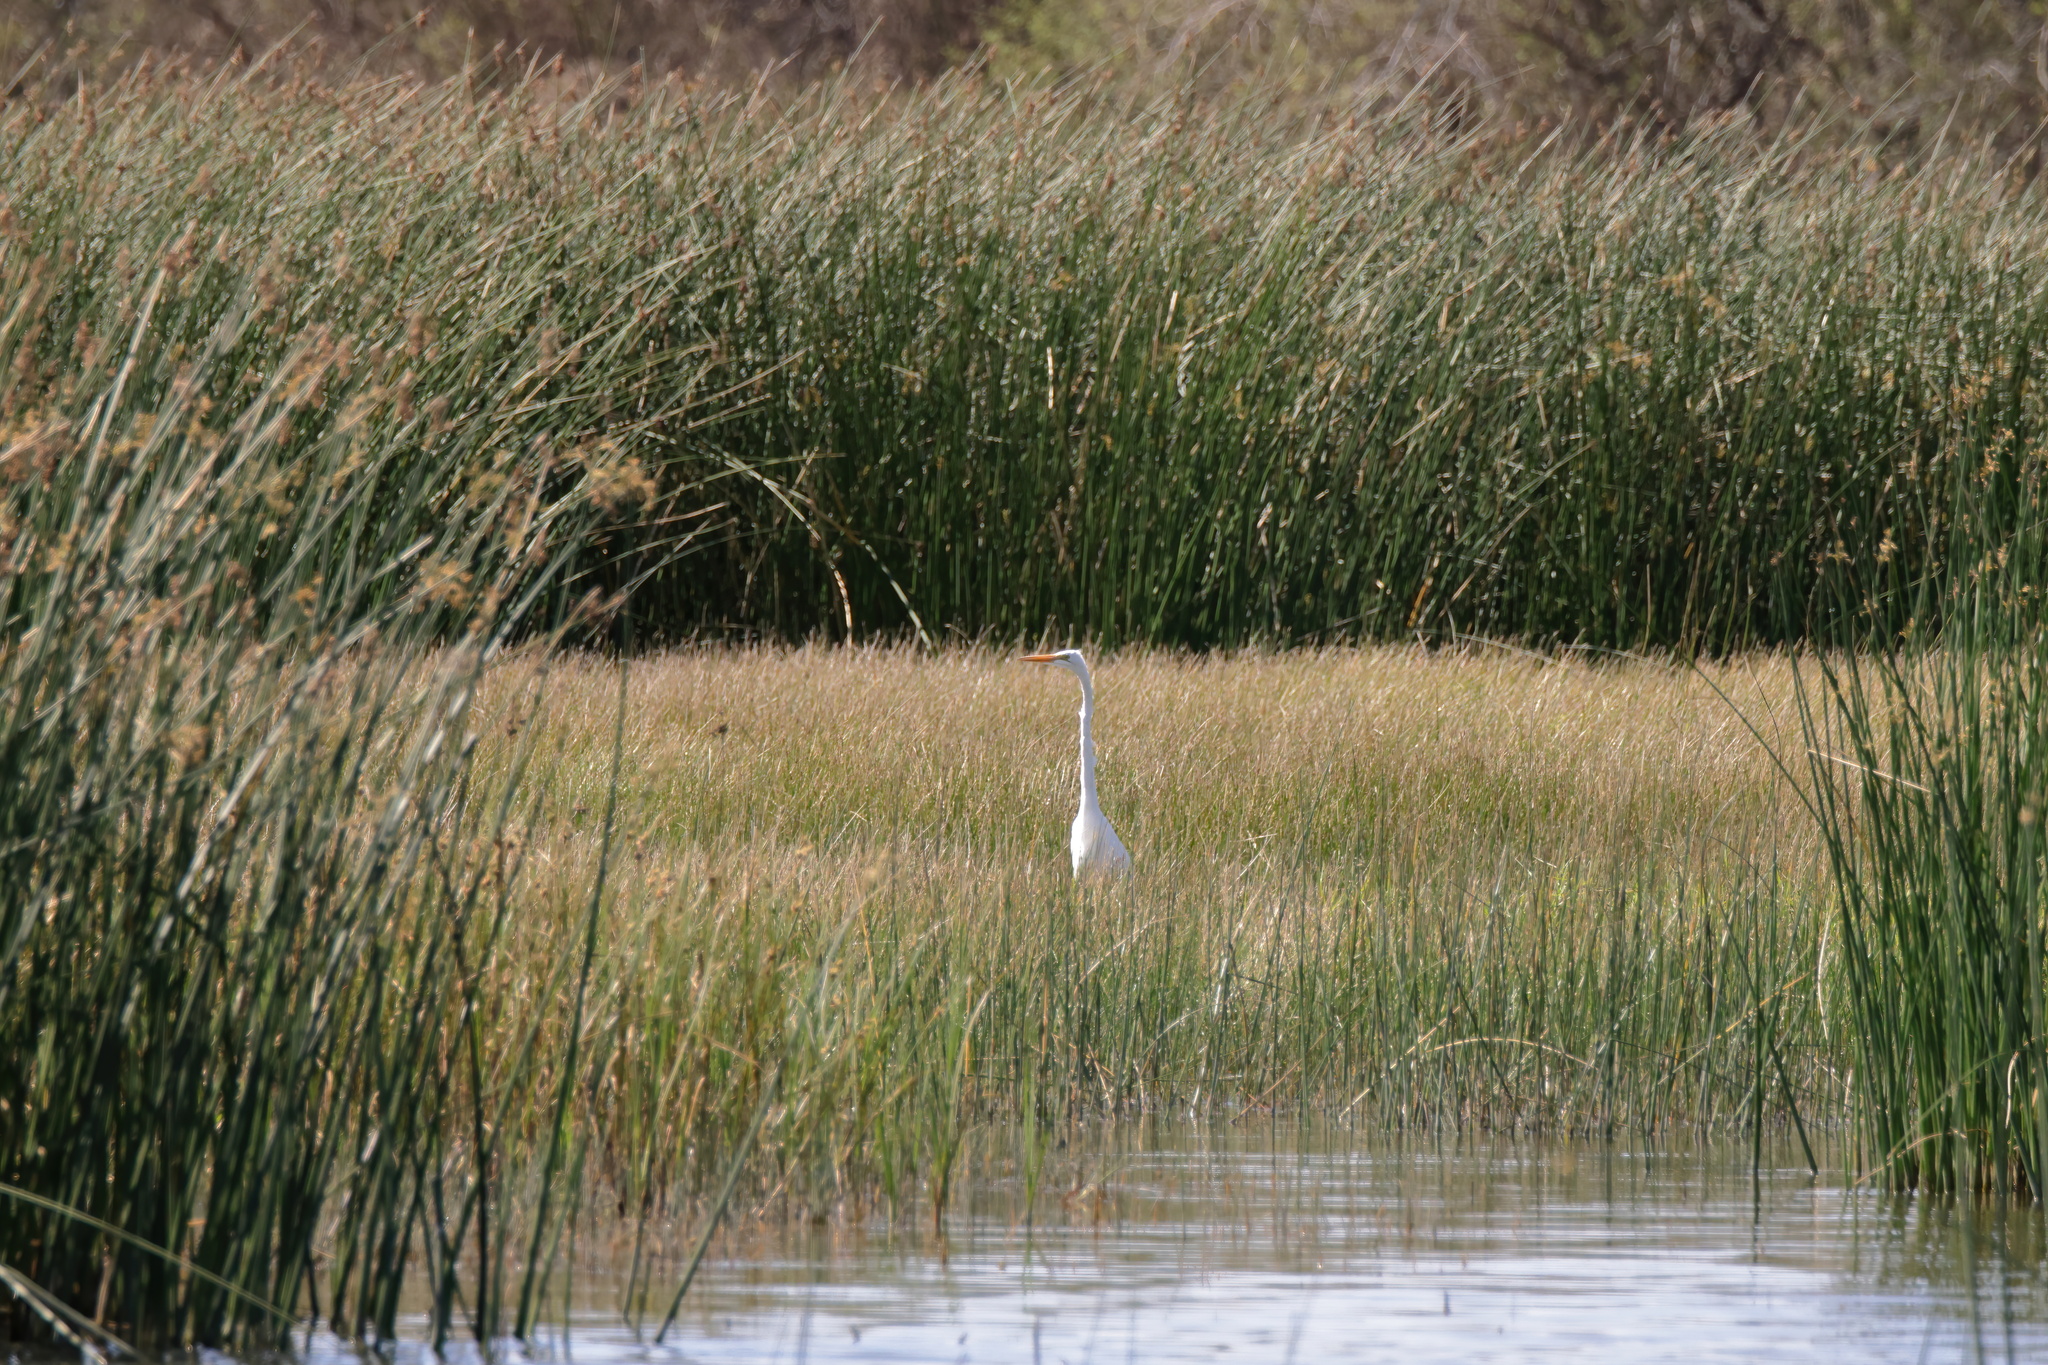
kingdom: Animalia
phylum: Chordata
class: Aves
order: Pelecaniformes
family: Ardeidae
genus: Ardea
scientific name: Ardea alba
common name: Great egret
